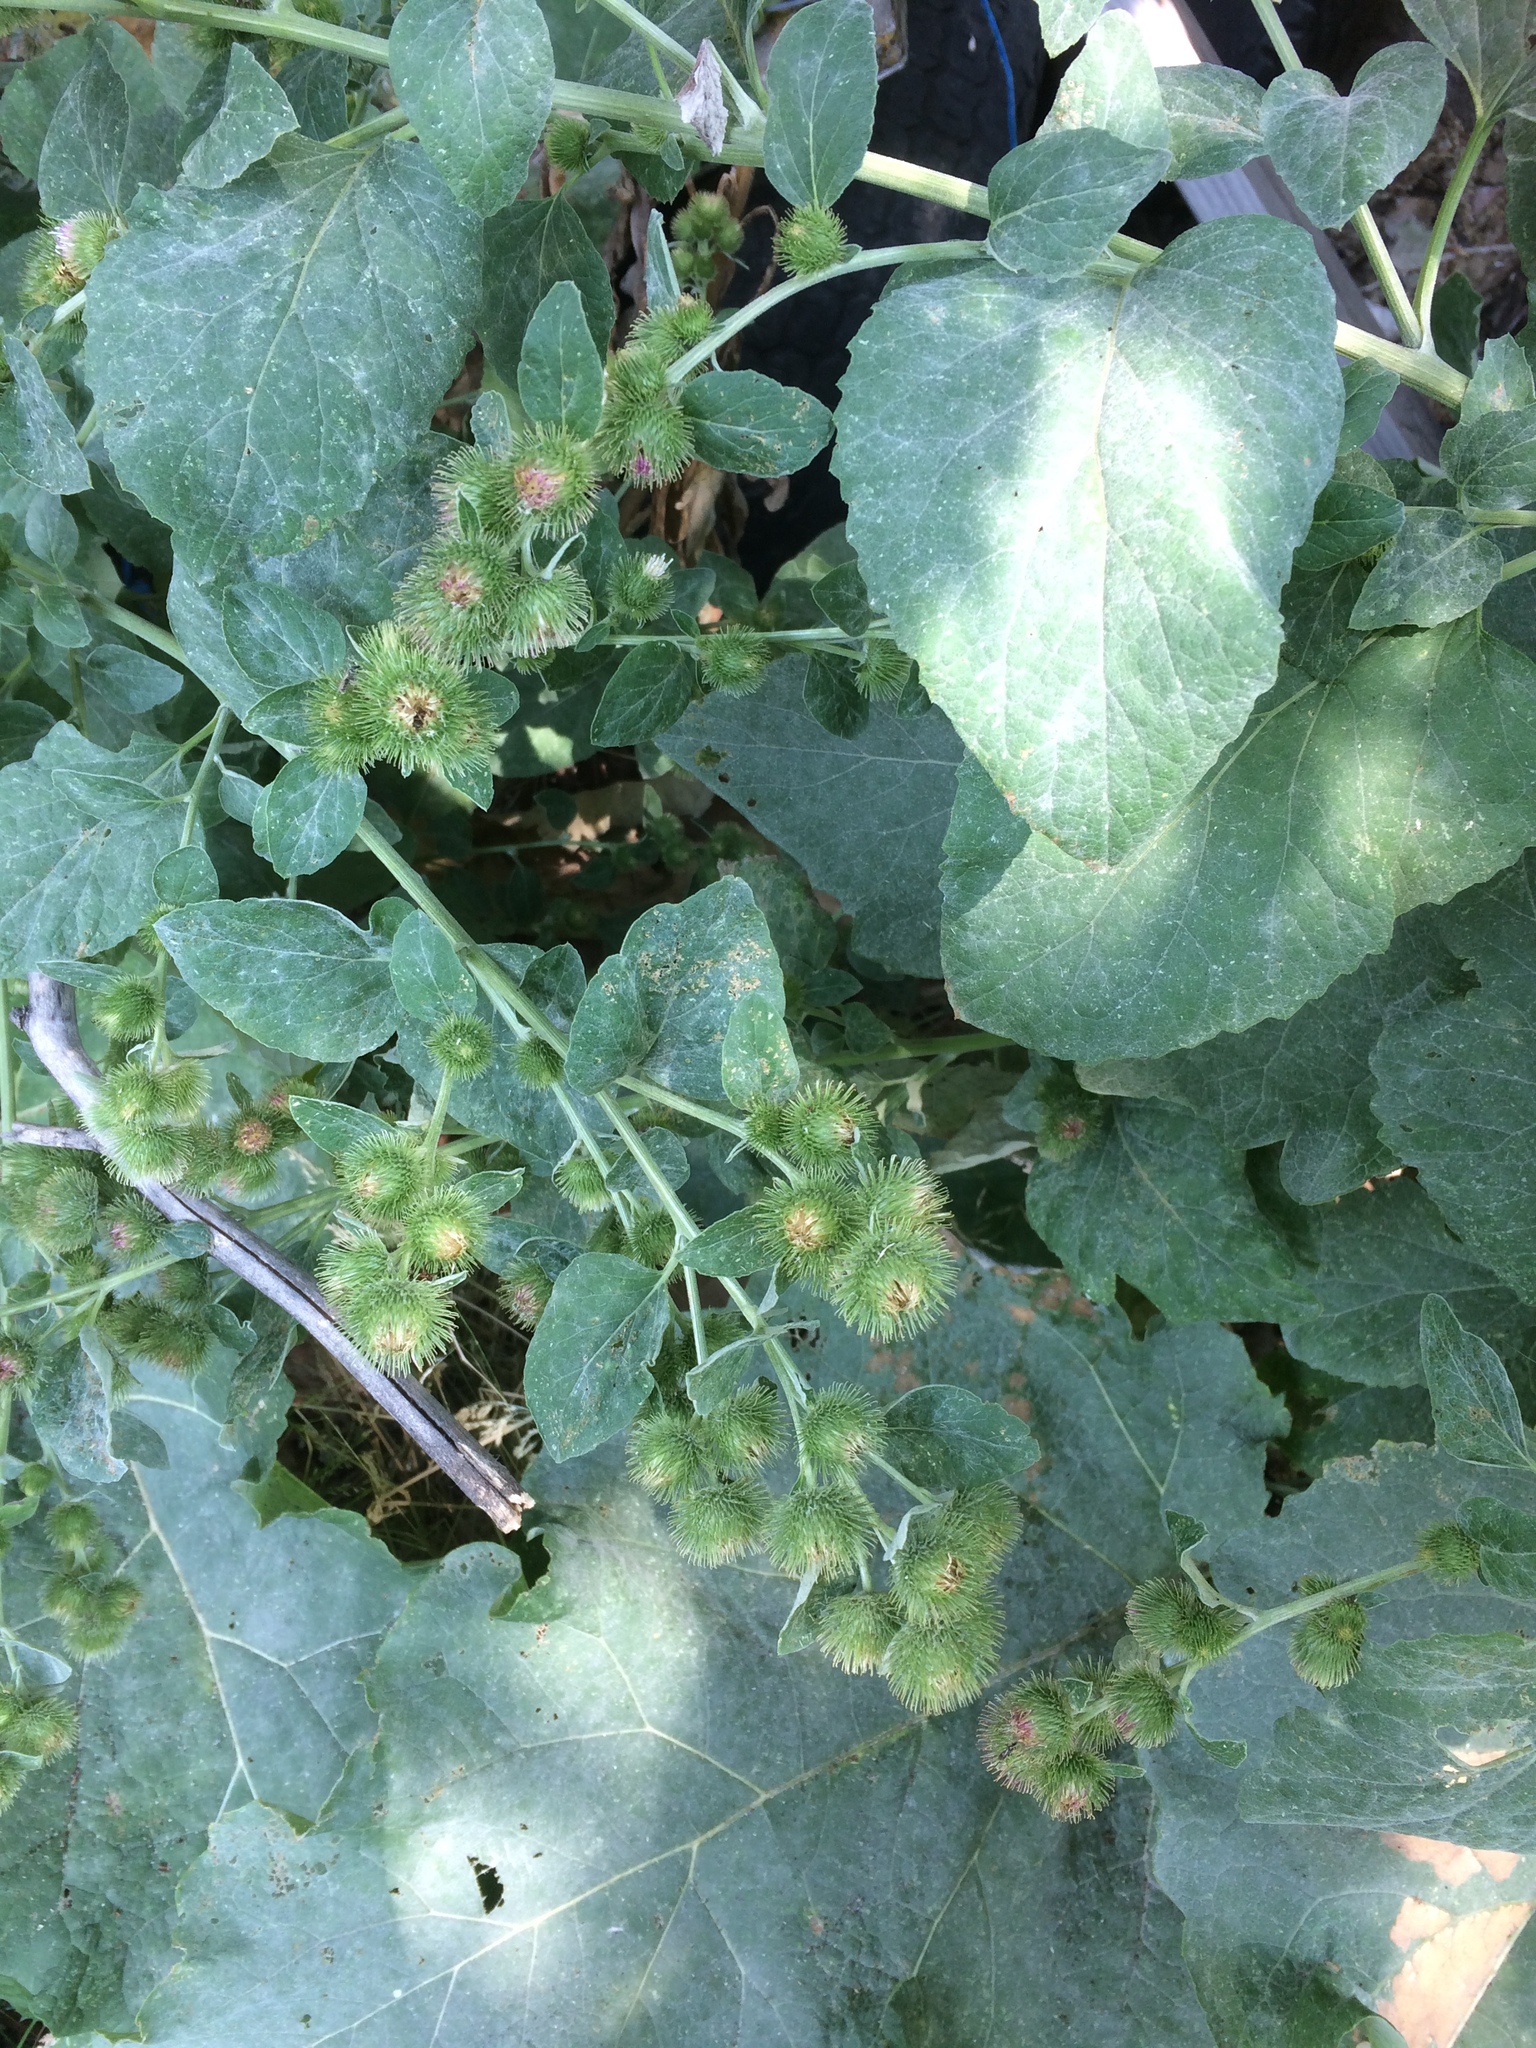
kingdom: Plantae
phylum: Tracheophyta
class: Magnoliopsida
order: Asterales
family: Asteraceae
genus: Arctium
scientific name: Arctium minus
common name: Lesser burdock
